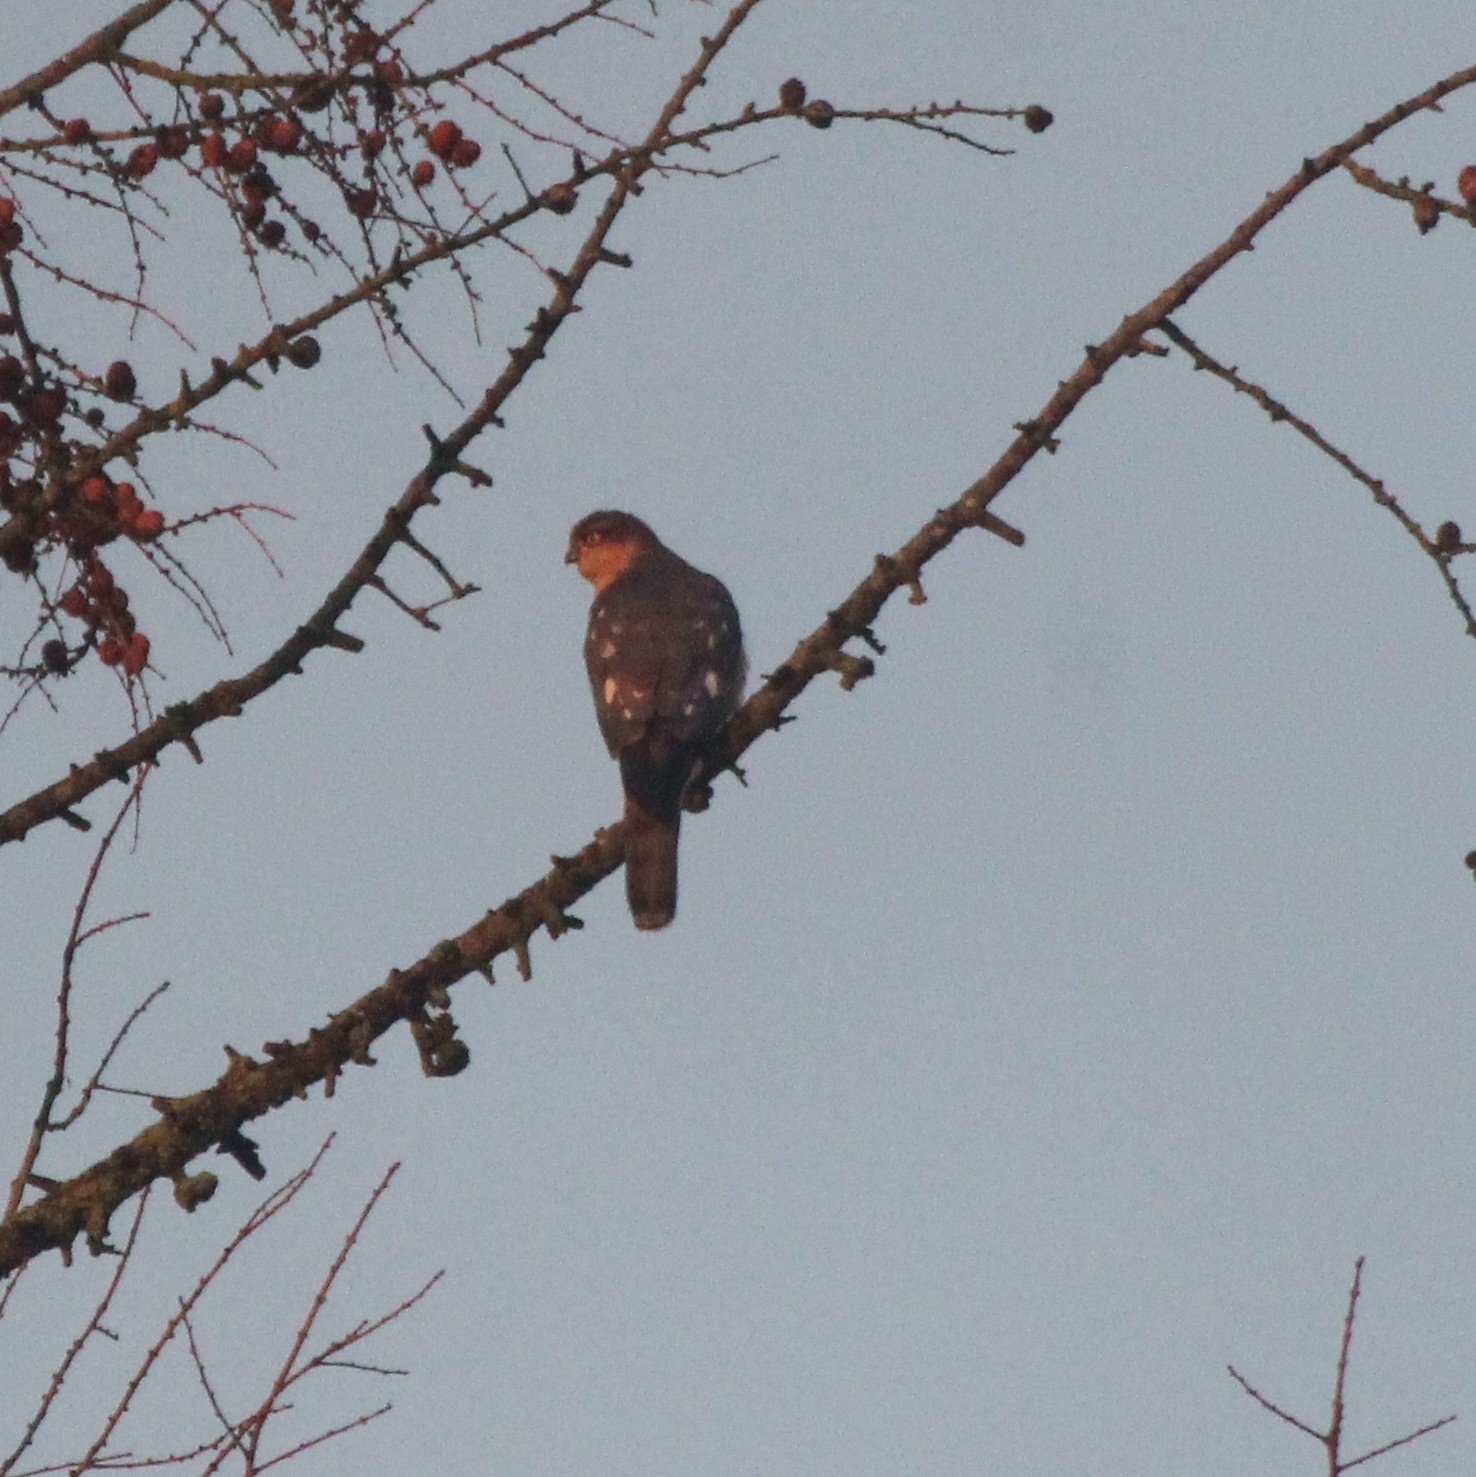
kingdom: Animalia
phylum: Chordata
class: Aves
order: Accipitriformes
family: Accipitridae
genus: Accipiter
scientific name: Accipiter nisus
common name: Eurasian sparrowhawk
